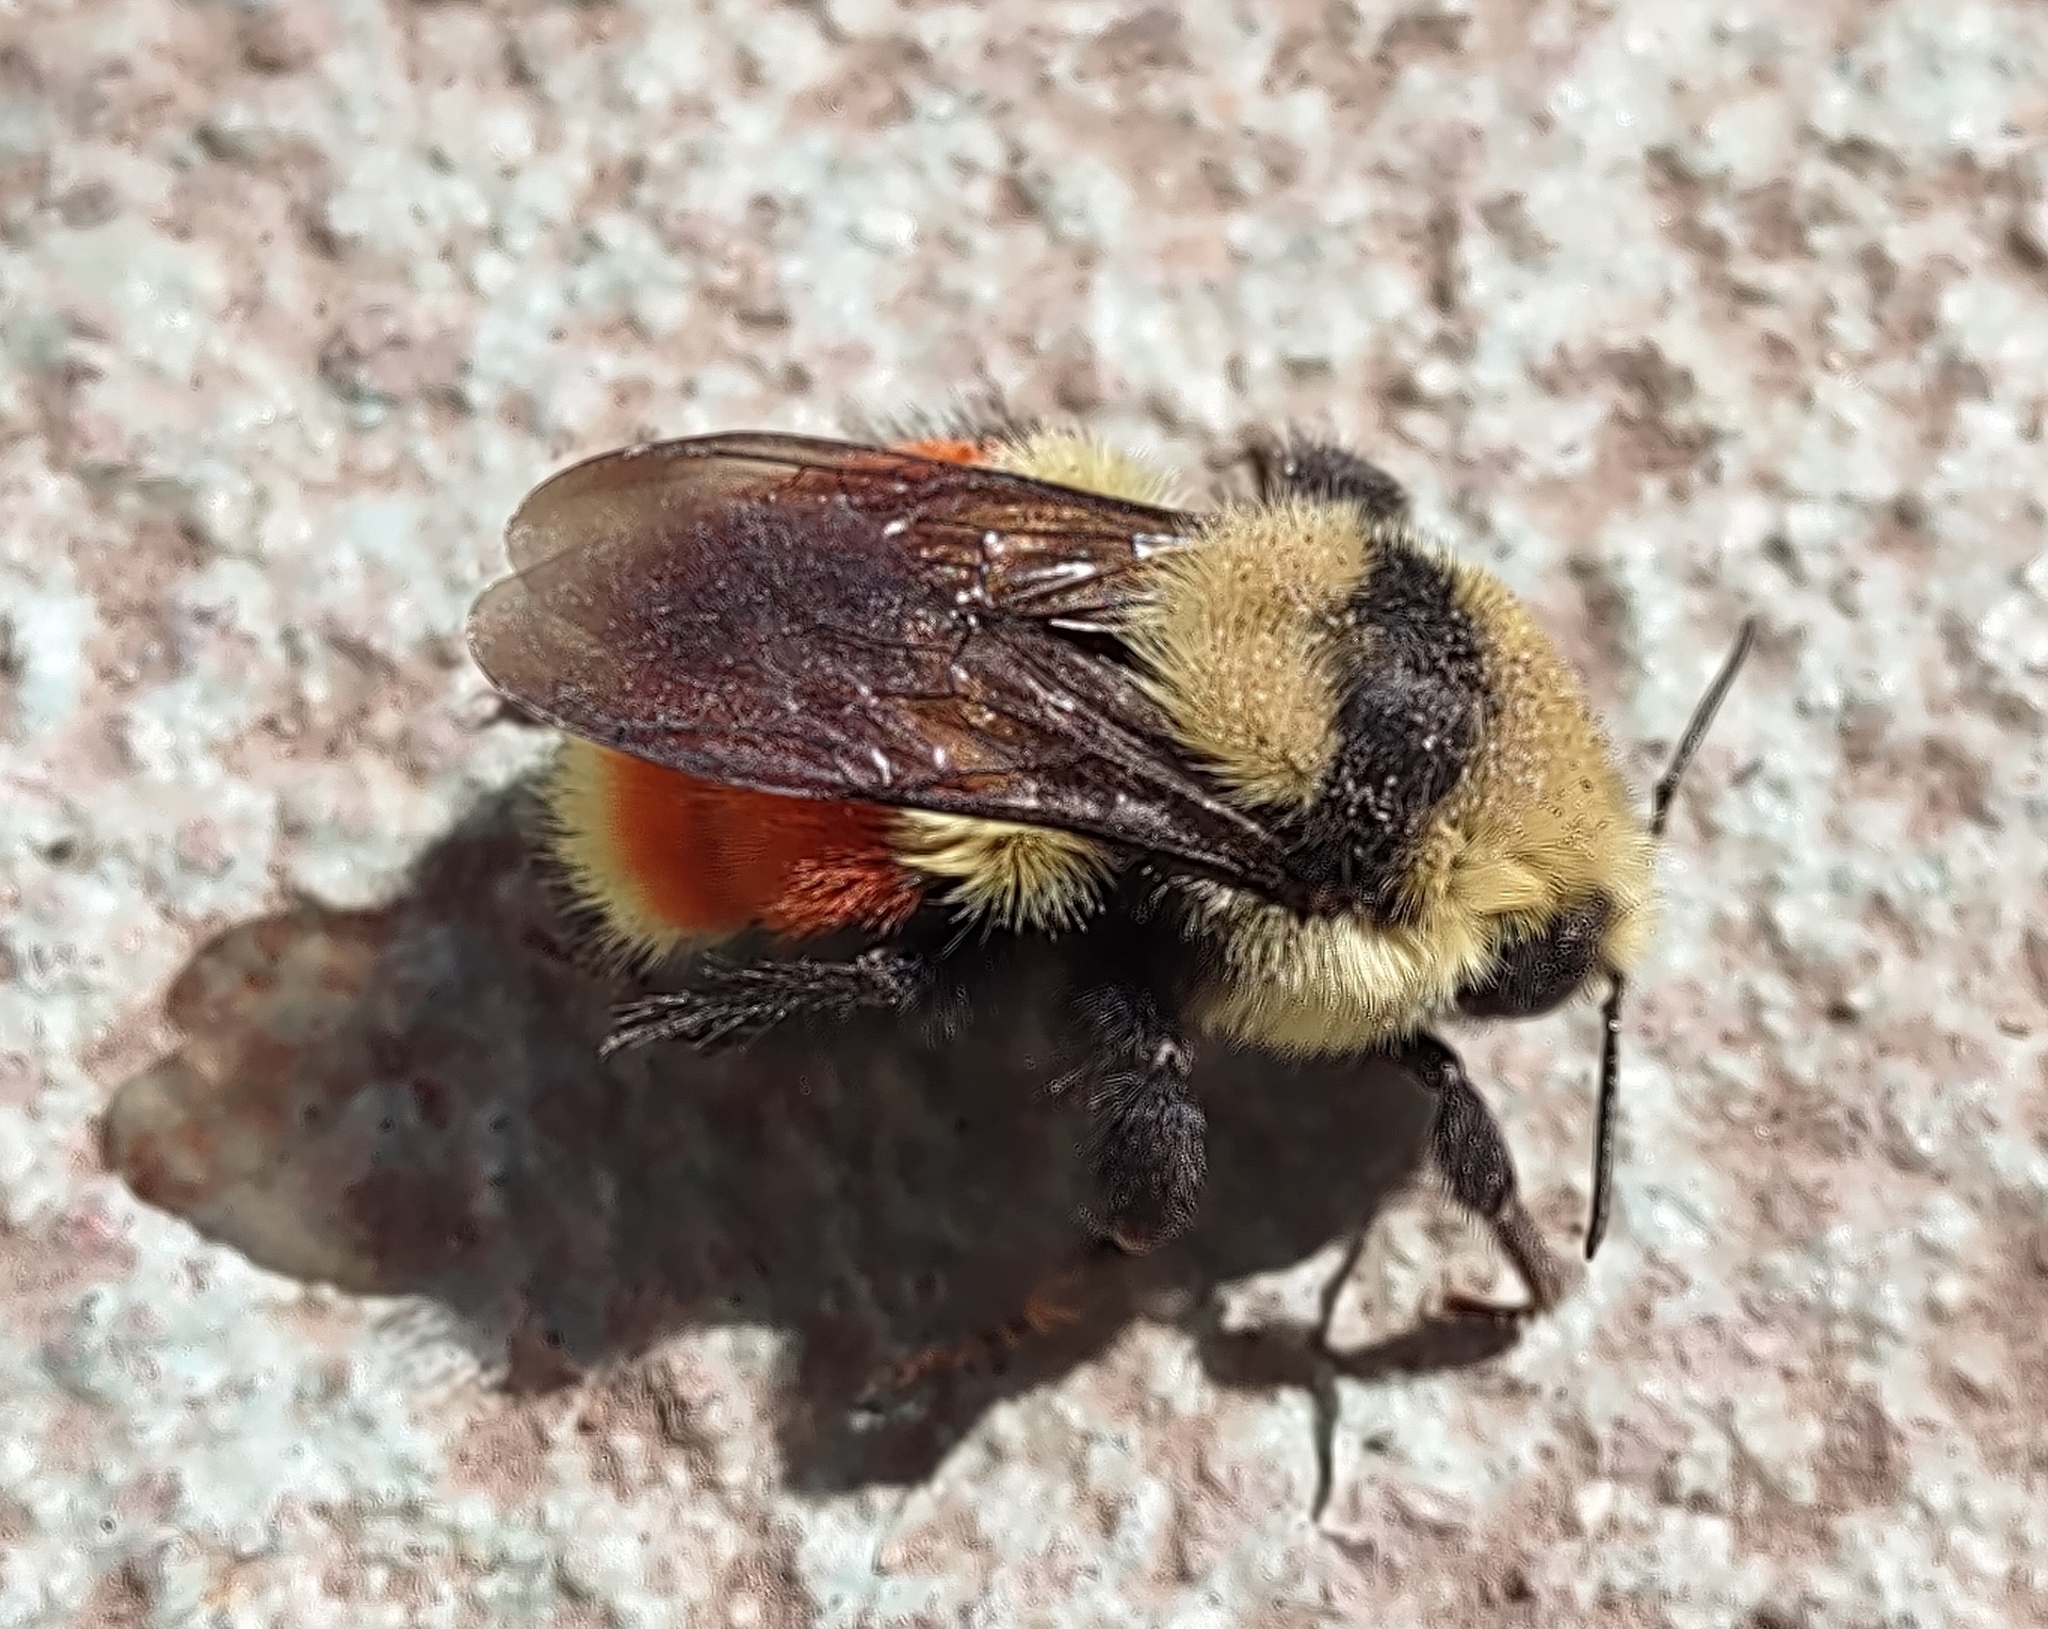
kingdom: Animalia
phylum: Arthropoda
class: Insecta
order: Hymenoptera
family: Apidae
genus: Bombus
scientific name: Bombus huntii
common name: Hunt bumble bee
